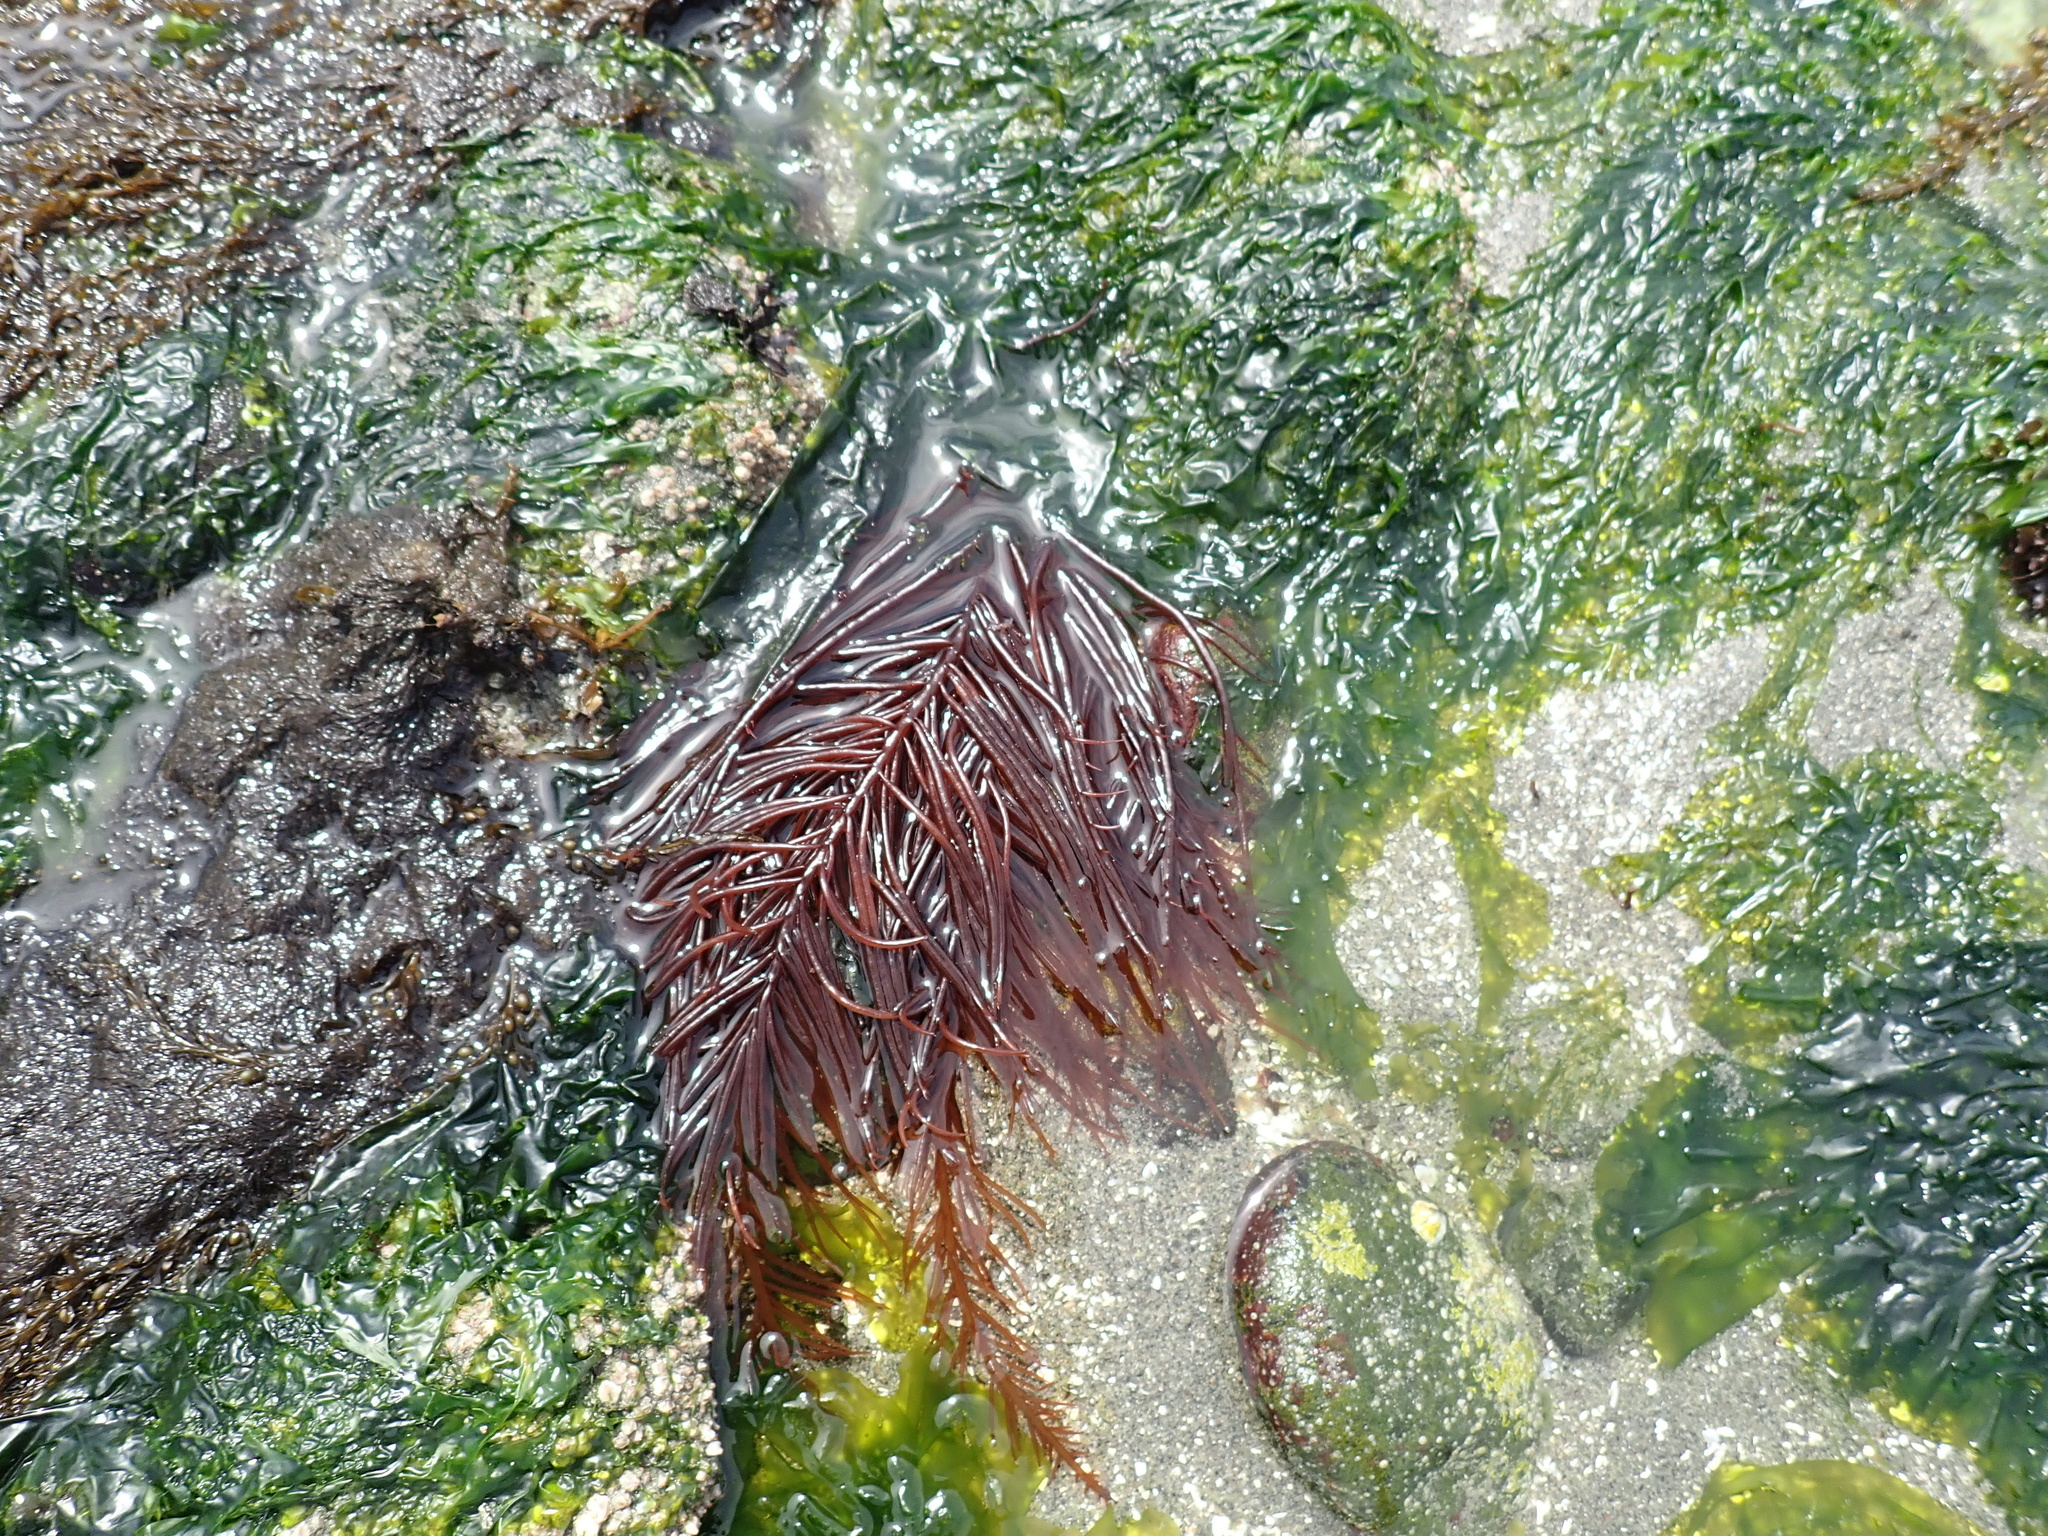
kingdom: Plantae
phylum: Rhodophyta
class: Florideophyceae
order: Gigartinales
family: Solieriaceae
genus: Sarcodiotheca
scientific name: Sarcodiotheca gaudichaudii
